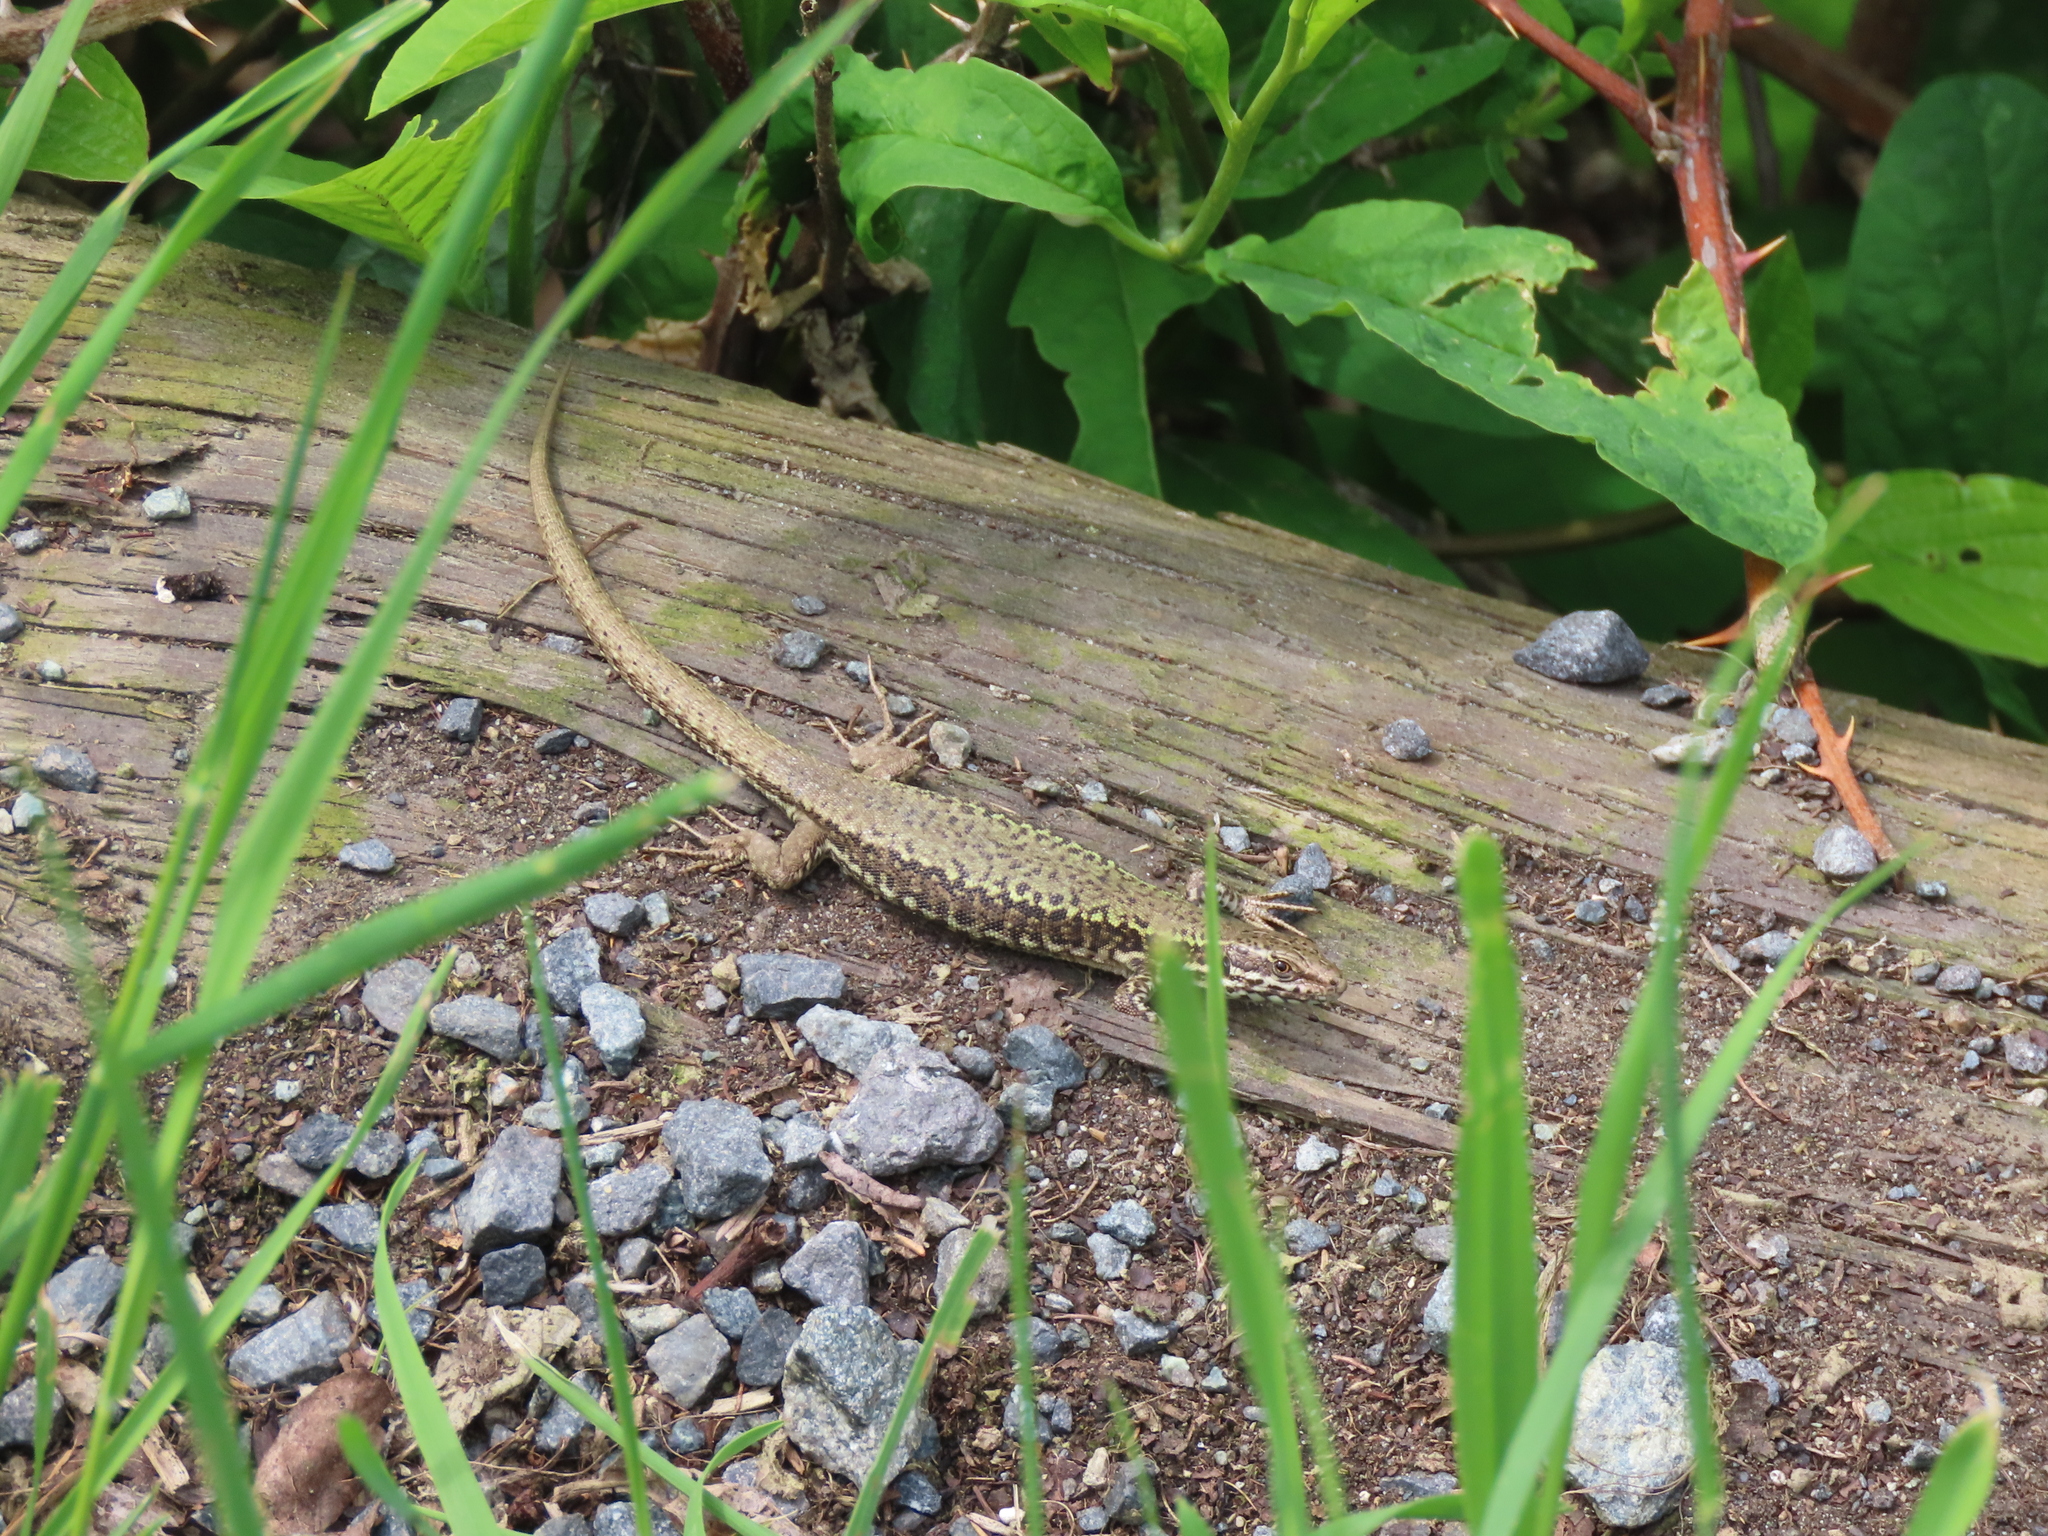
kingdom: Animalia
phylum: Chordata
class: Squamata
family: Lacertidae
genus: Podarcis
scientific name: Podarcis muralis
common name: Common wall lizard
